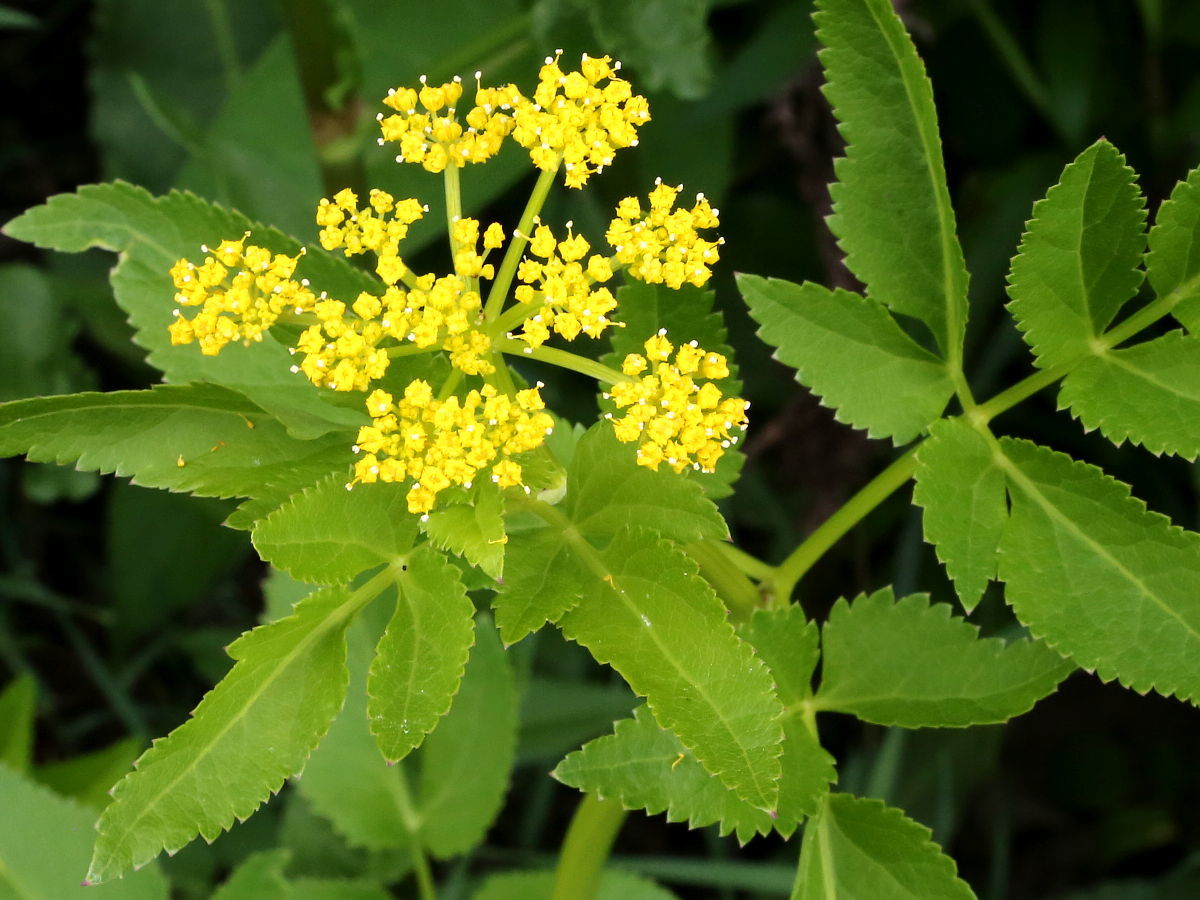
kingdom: Plantae
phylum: Tracheophyta
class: Magnoliopsida
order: Apiales
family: Apiaceae
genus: Zizia
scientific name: Zizia aurea
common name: Golden alexanders
